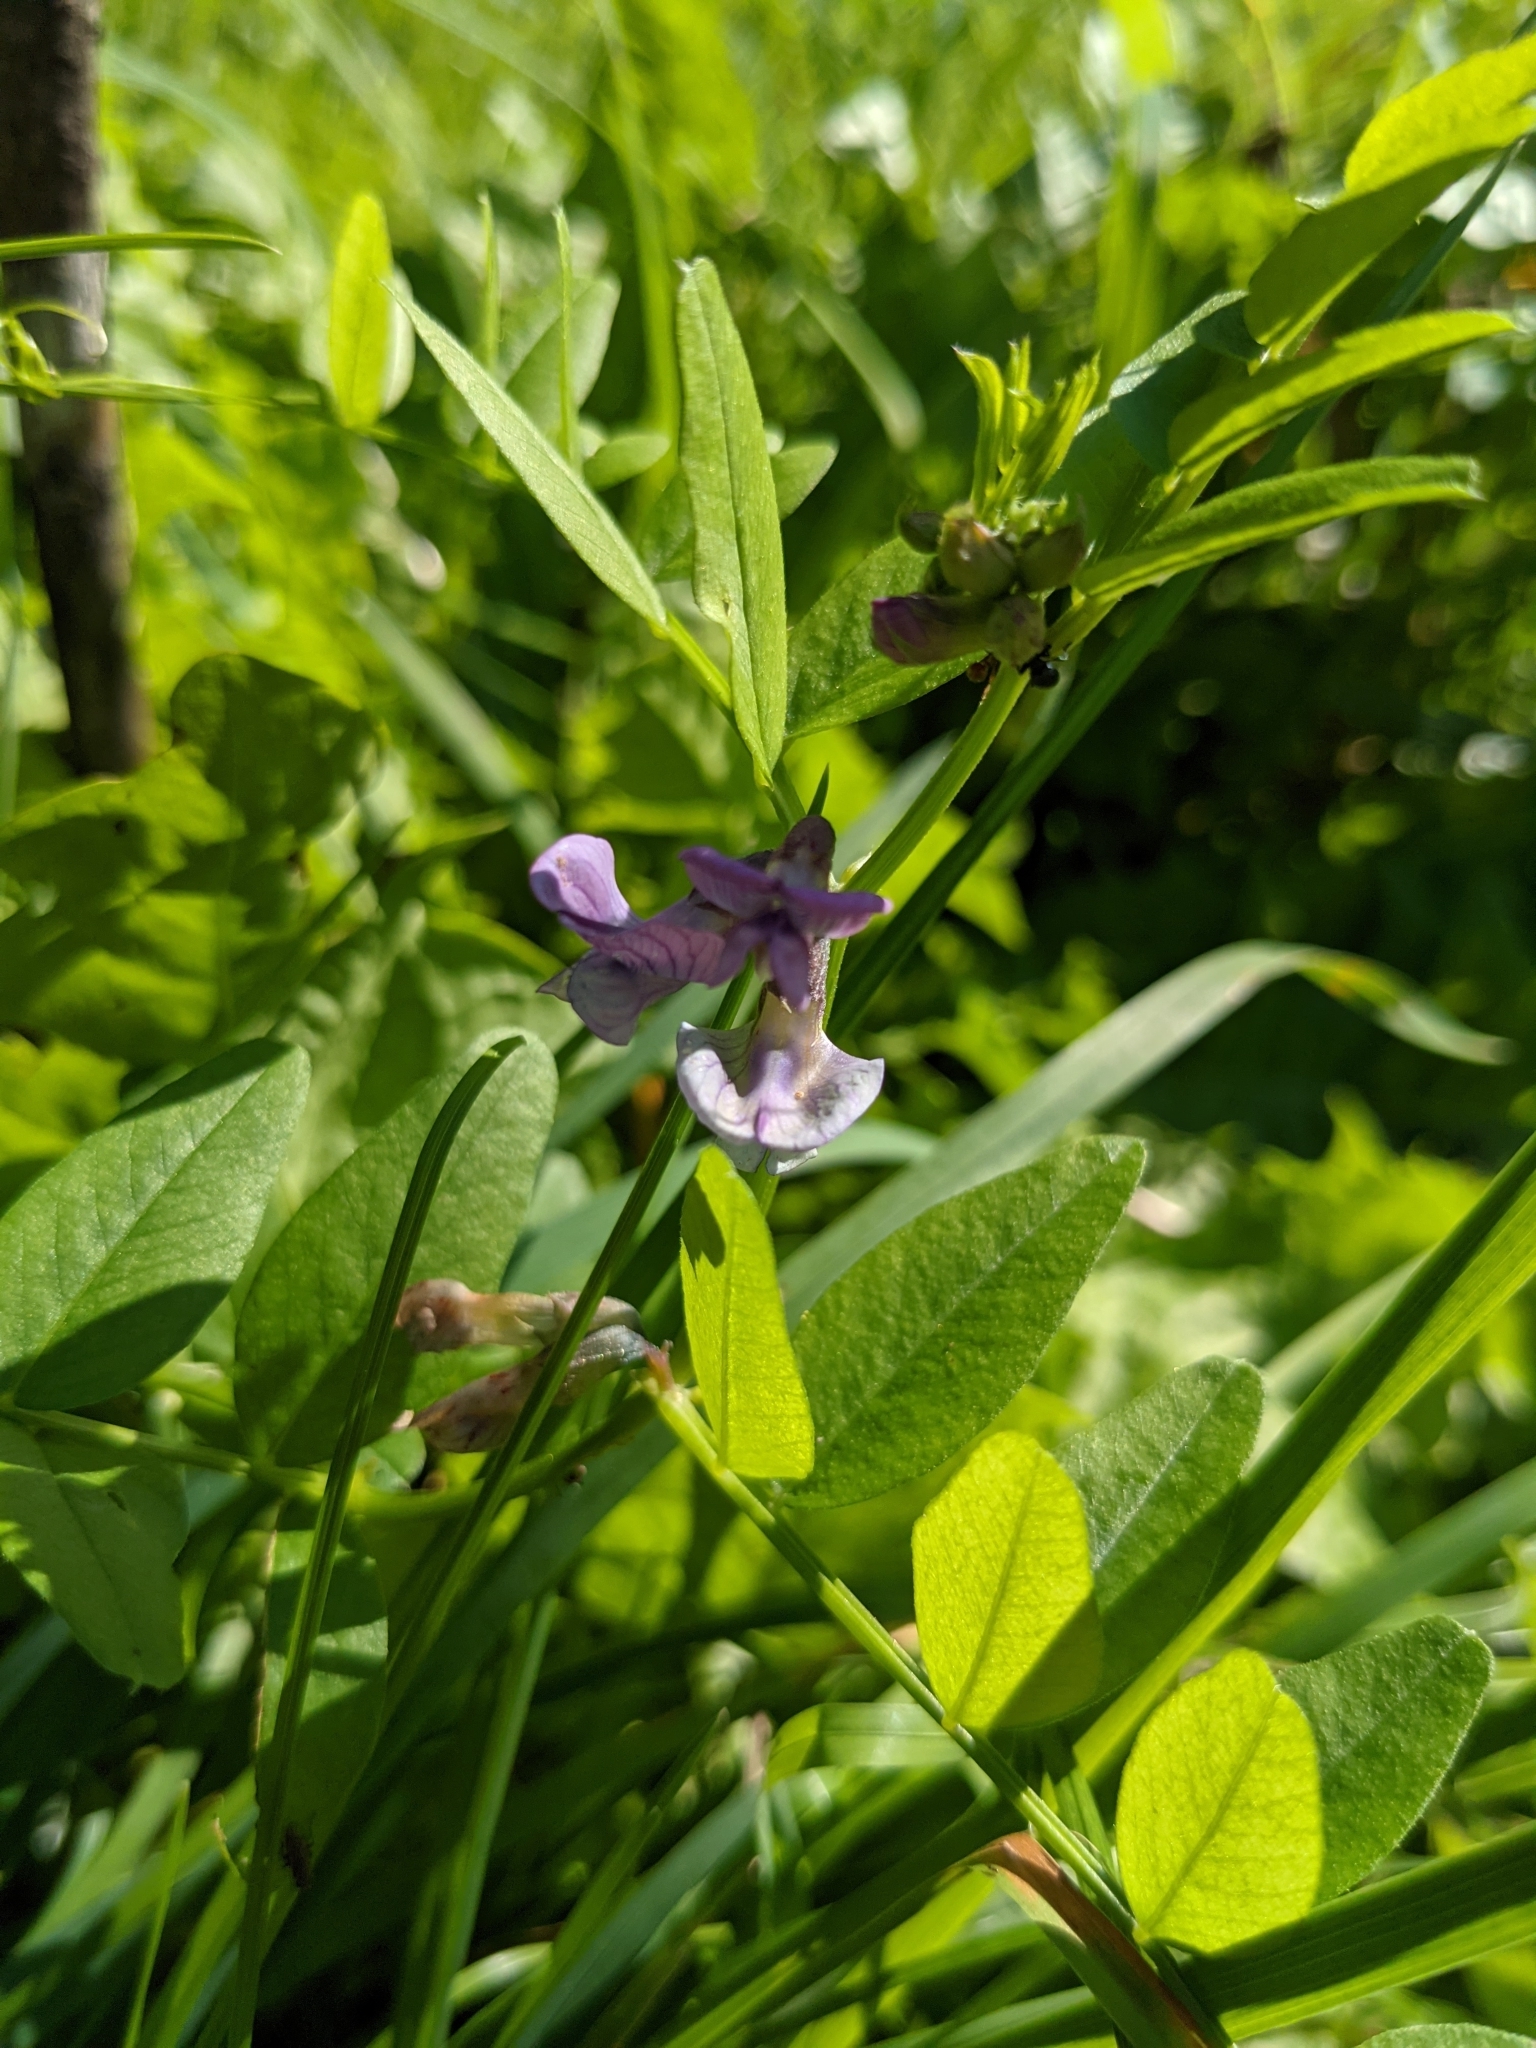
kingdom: Plantae
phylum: Tracheophyta
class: Magnoliopsida
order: Fabales
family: Fabaceae
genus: Vicia
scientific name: Vicia sepium
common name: Bush vetch
